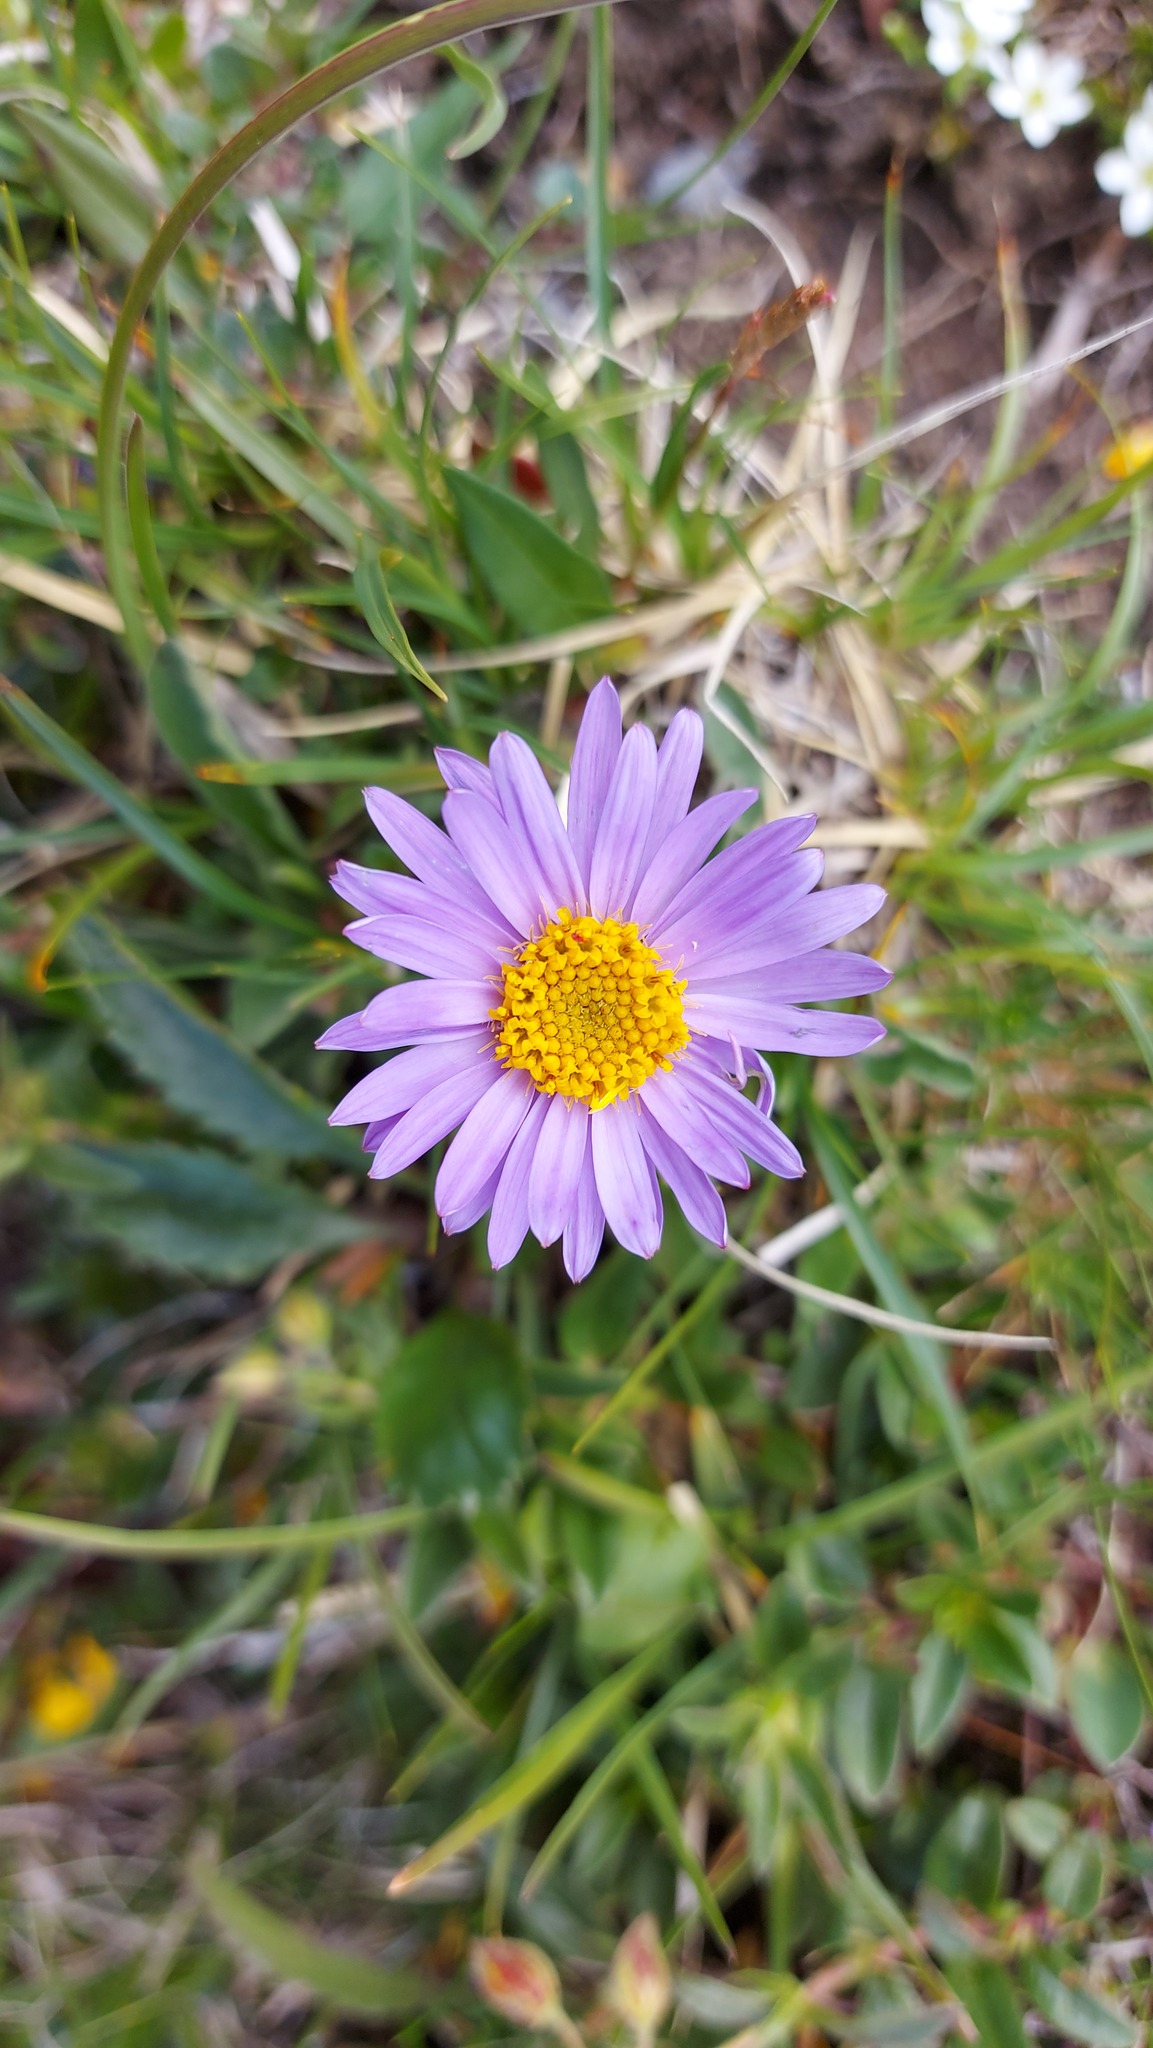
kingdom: Plantae
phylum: Tracheophyta
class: Magnoliopsida
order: Asterales
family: Asteraceae
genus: Aster
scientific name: Aster alpinus
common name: Alpine aster
